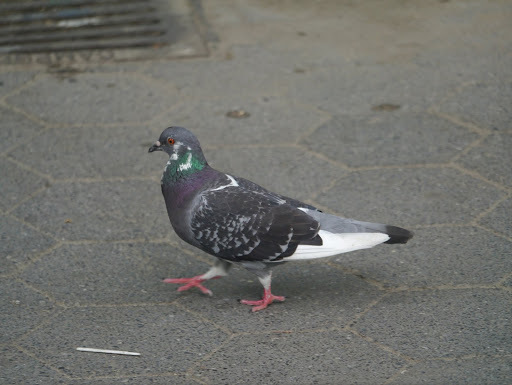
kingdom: Animalia
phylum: Chordata
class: Aves
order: Columbiformes
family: Columbidae
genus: Columba
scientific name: Columba livia
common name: Rock pigeon
